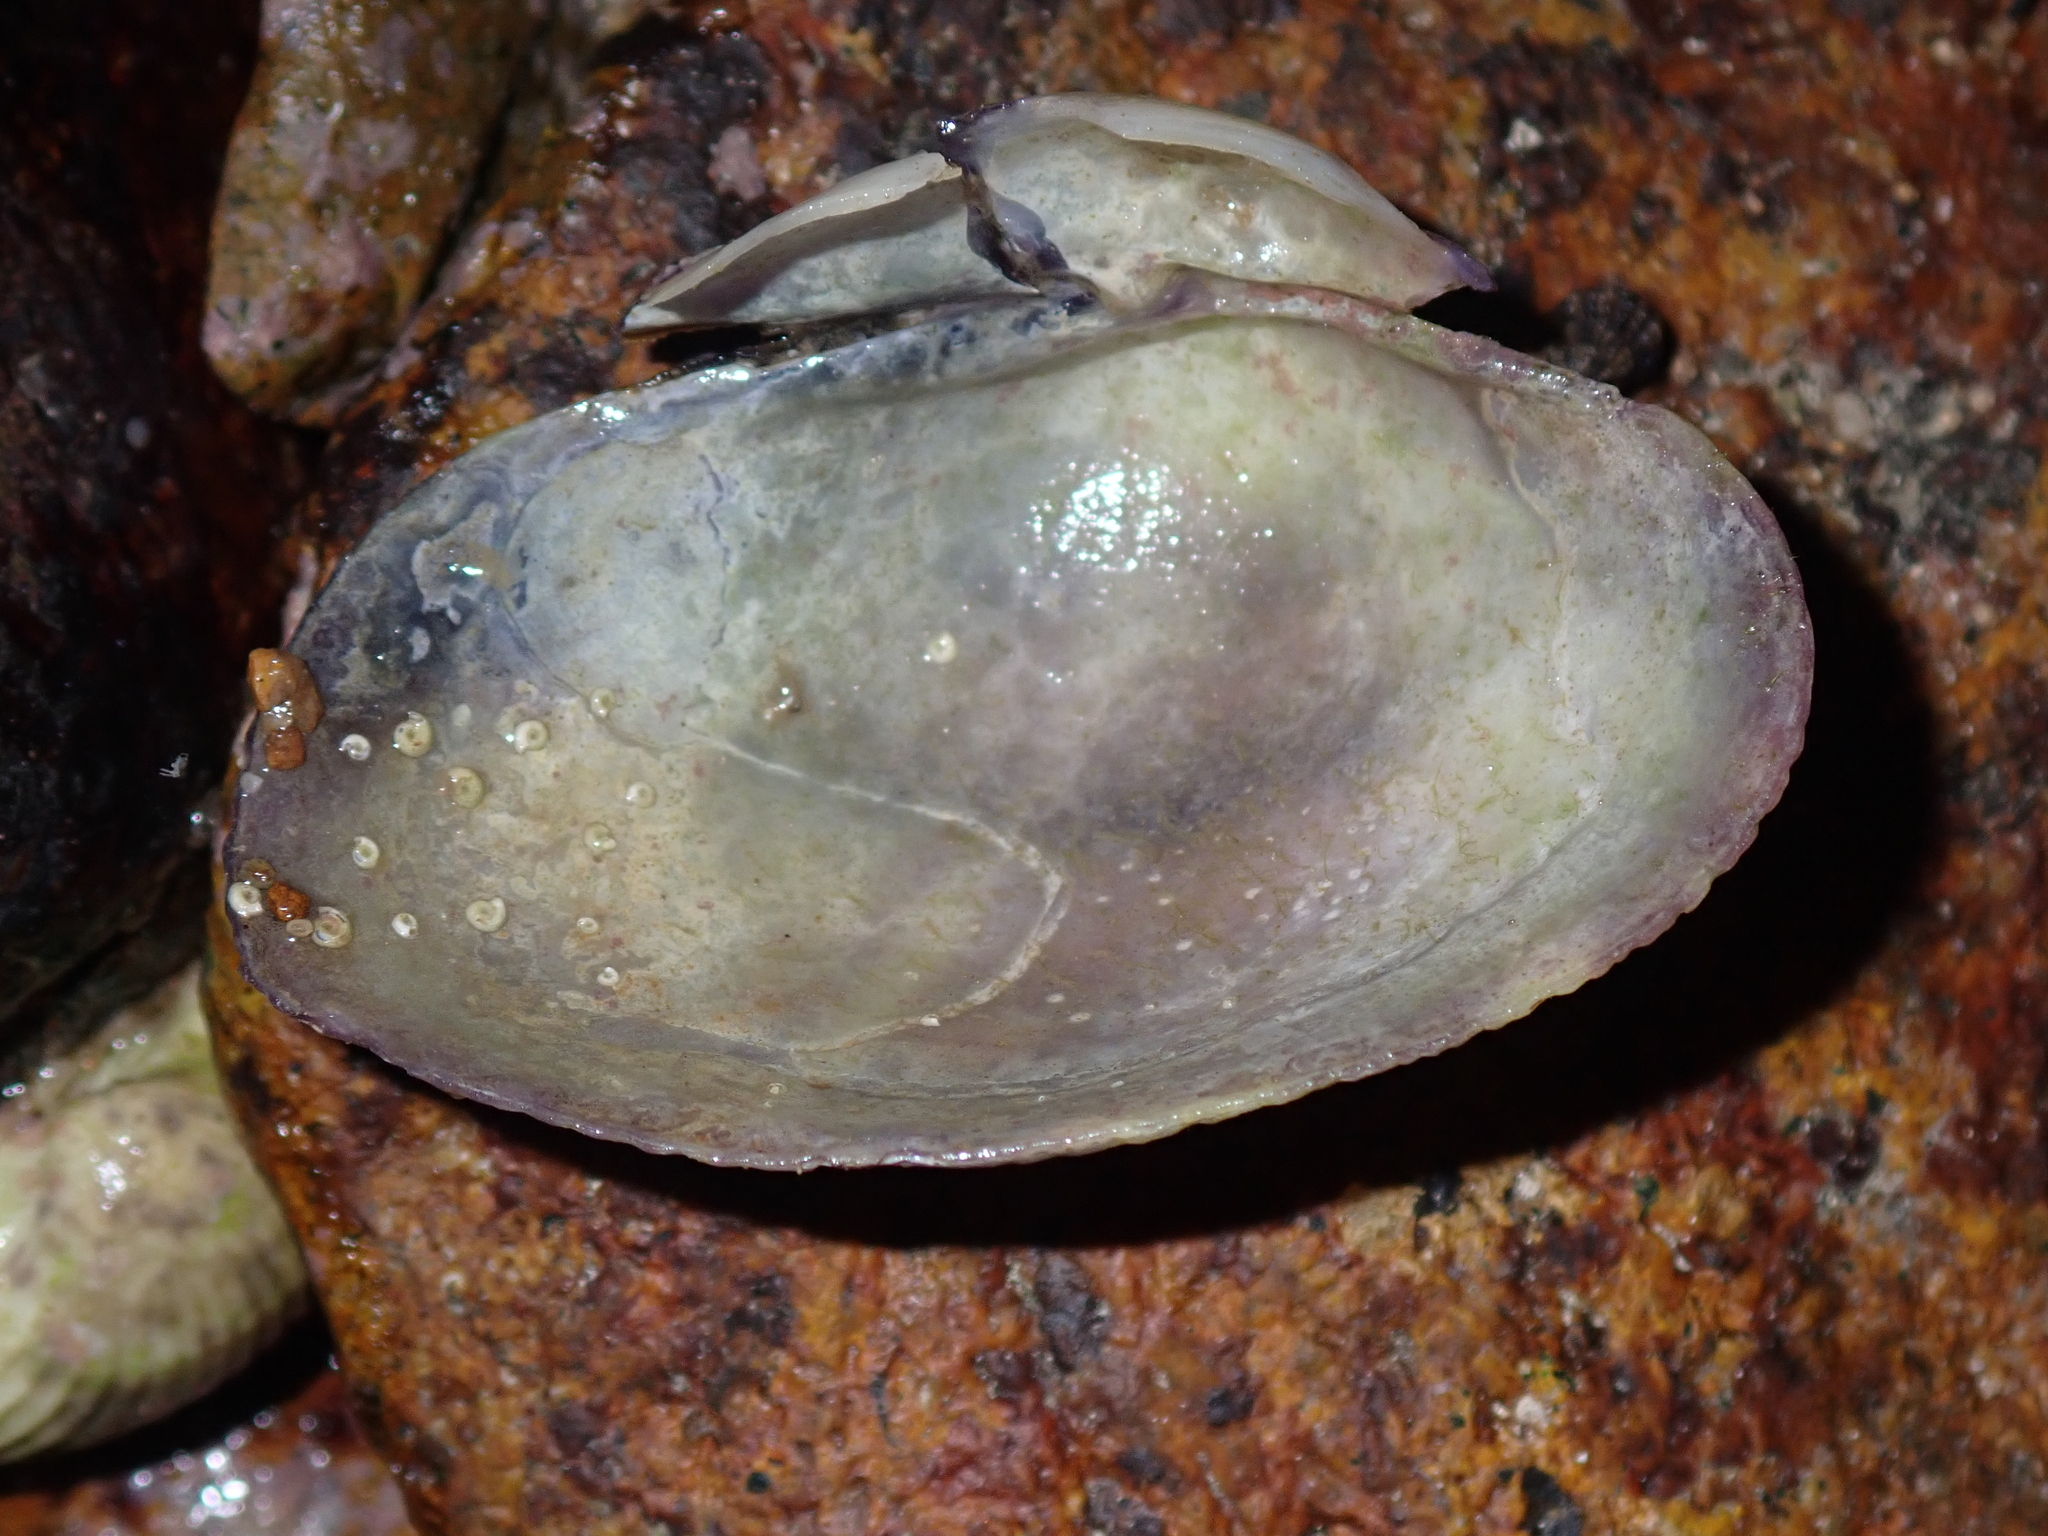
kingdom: Animalia
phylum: Mollusca
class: Bivalvia
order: Cardiida
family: Psammobiidae
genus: Asaphis
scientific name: Asaphis violascens
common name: Pacific asaphis
